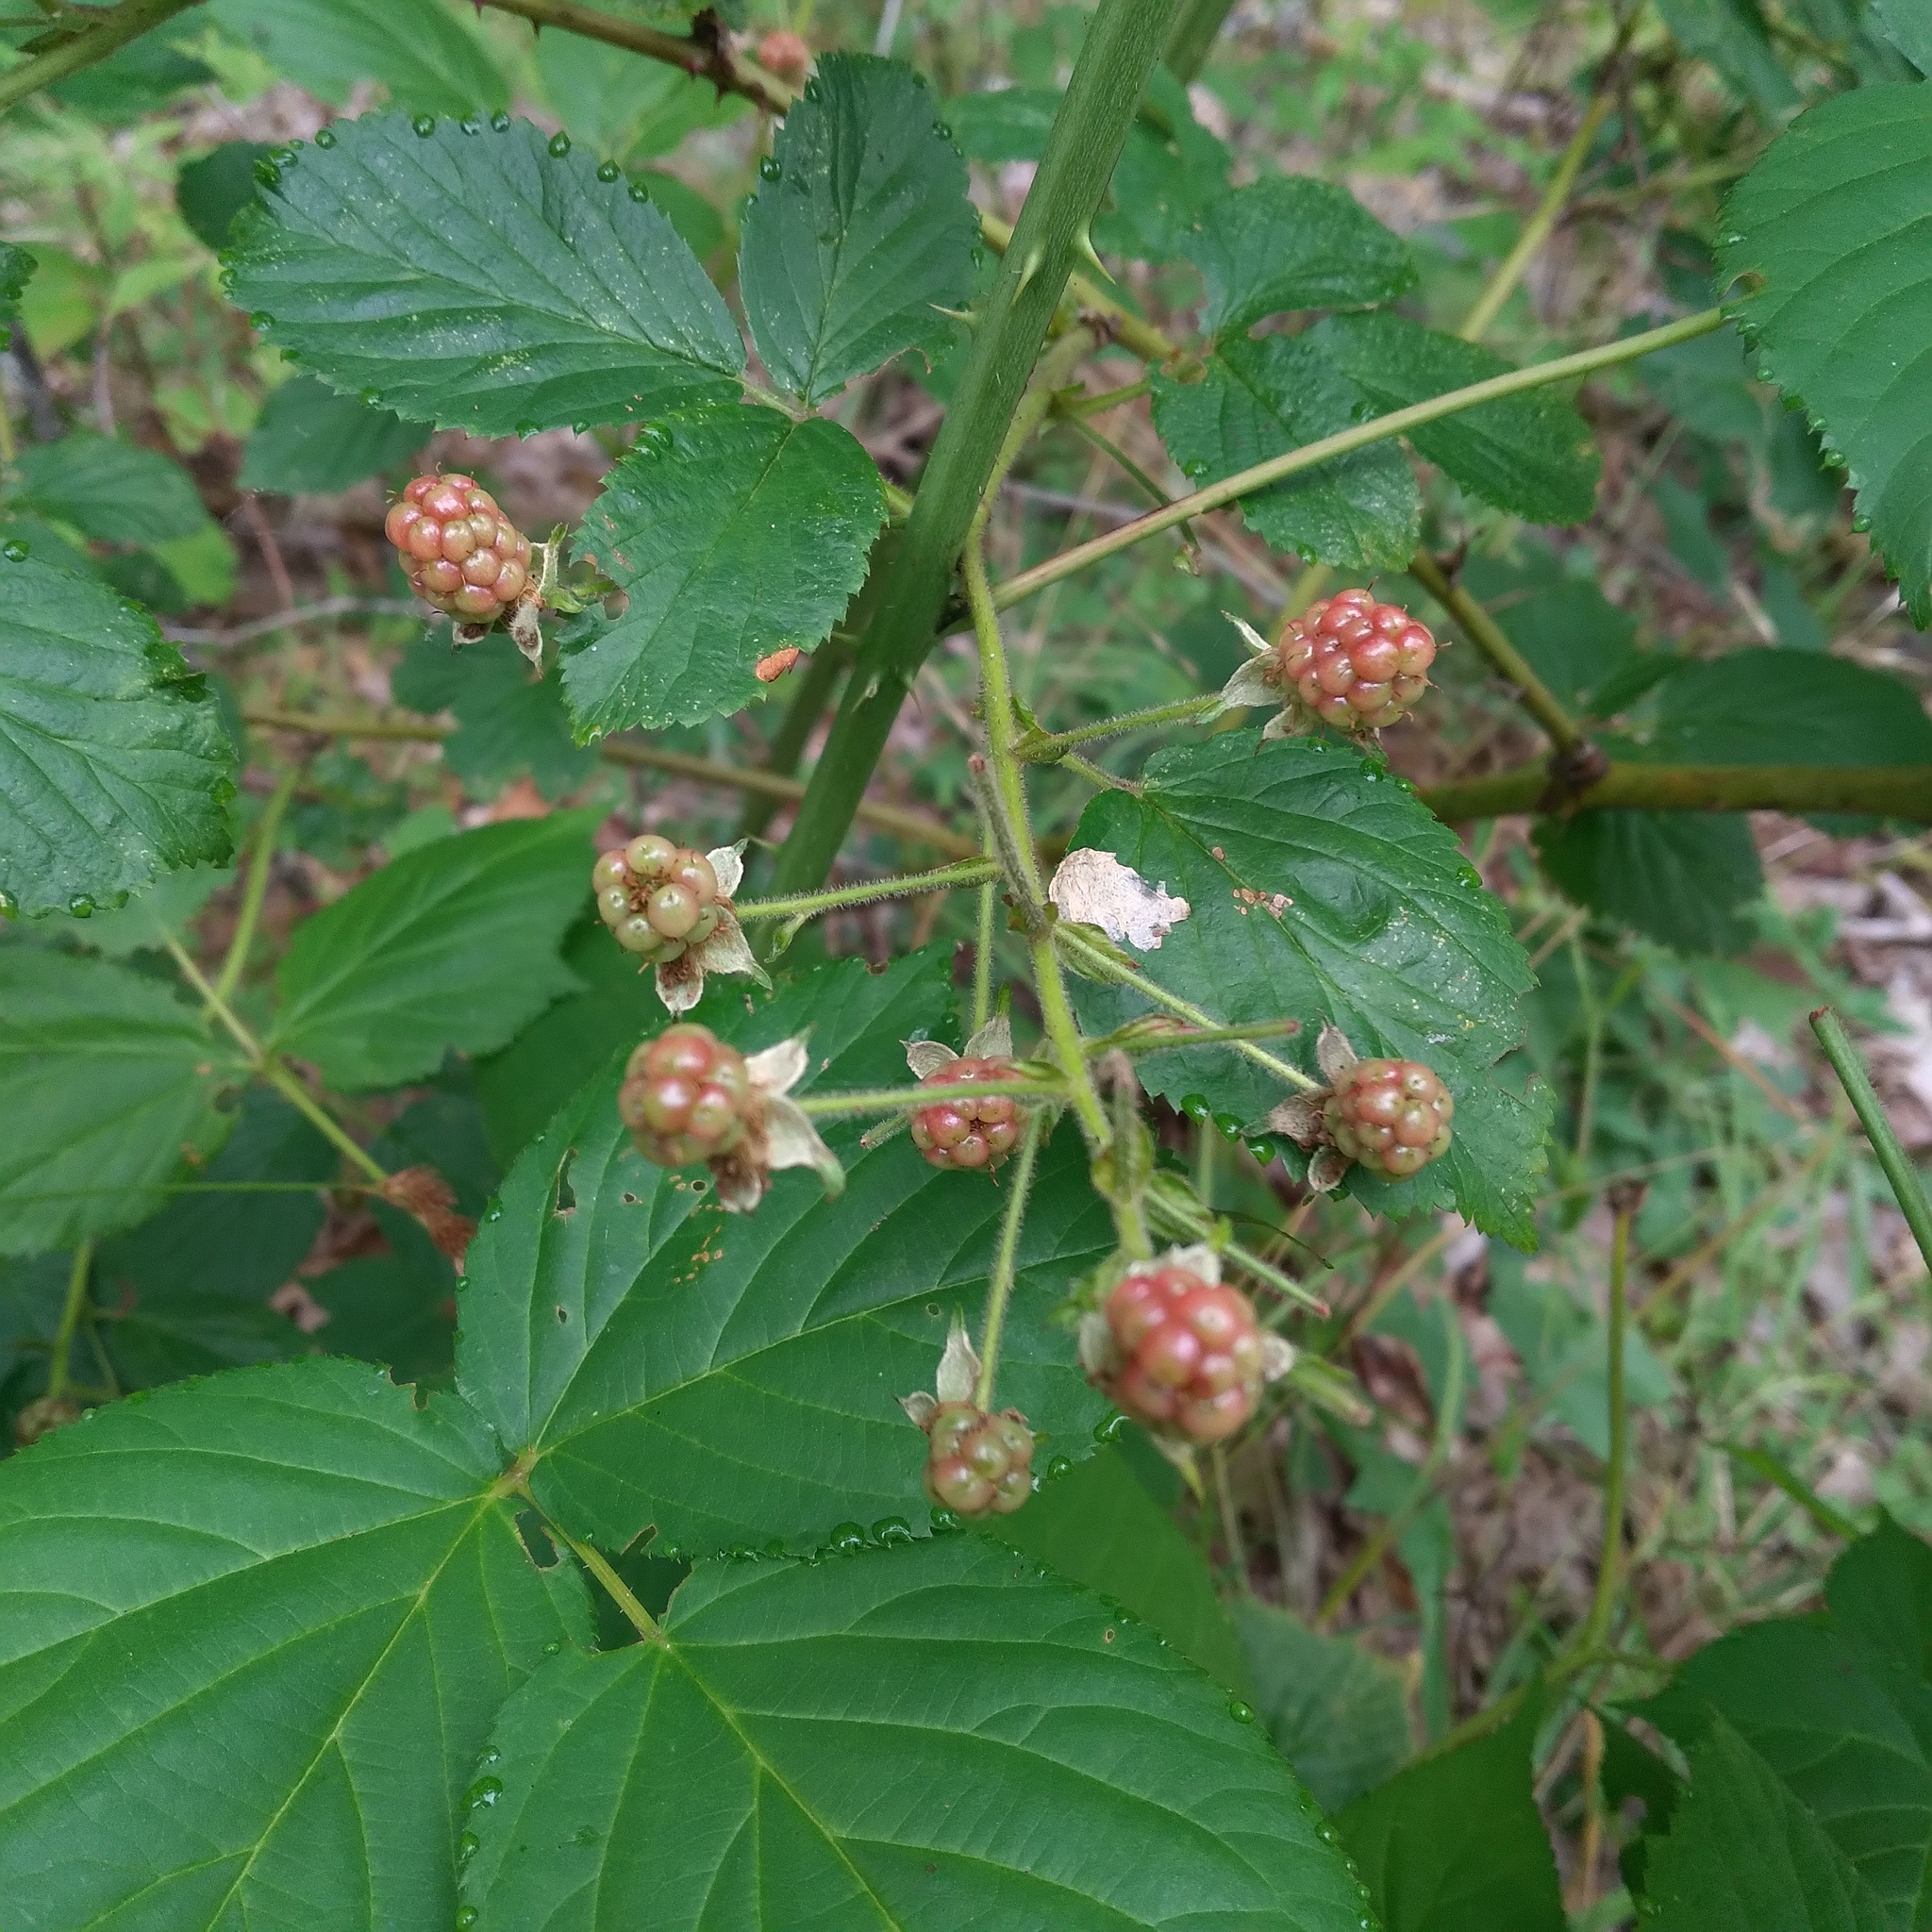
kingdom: Plantae
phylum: Tracheophyta
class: Magnoliopsida
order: Rosales
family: Rosaceae
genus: Rubus
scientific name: Rubus allegheniensis
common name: Allegheny blackberry
